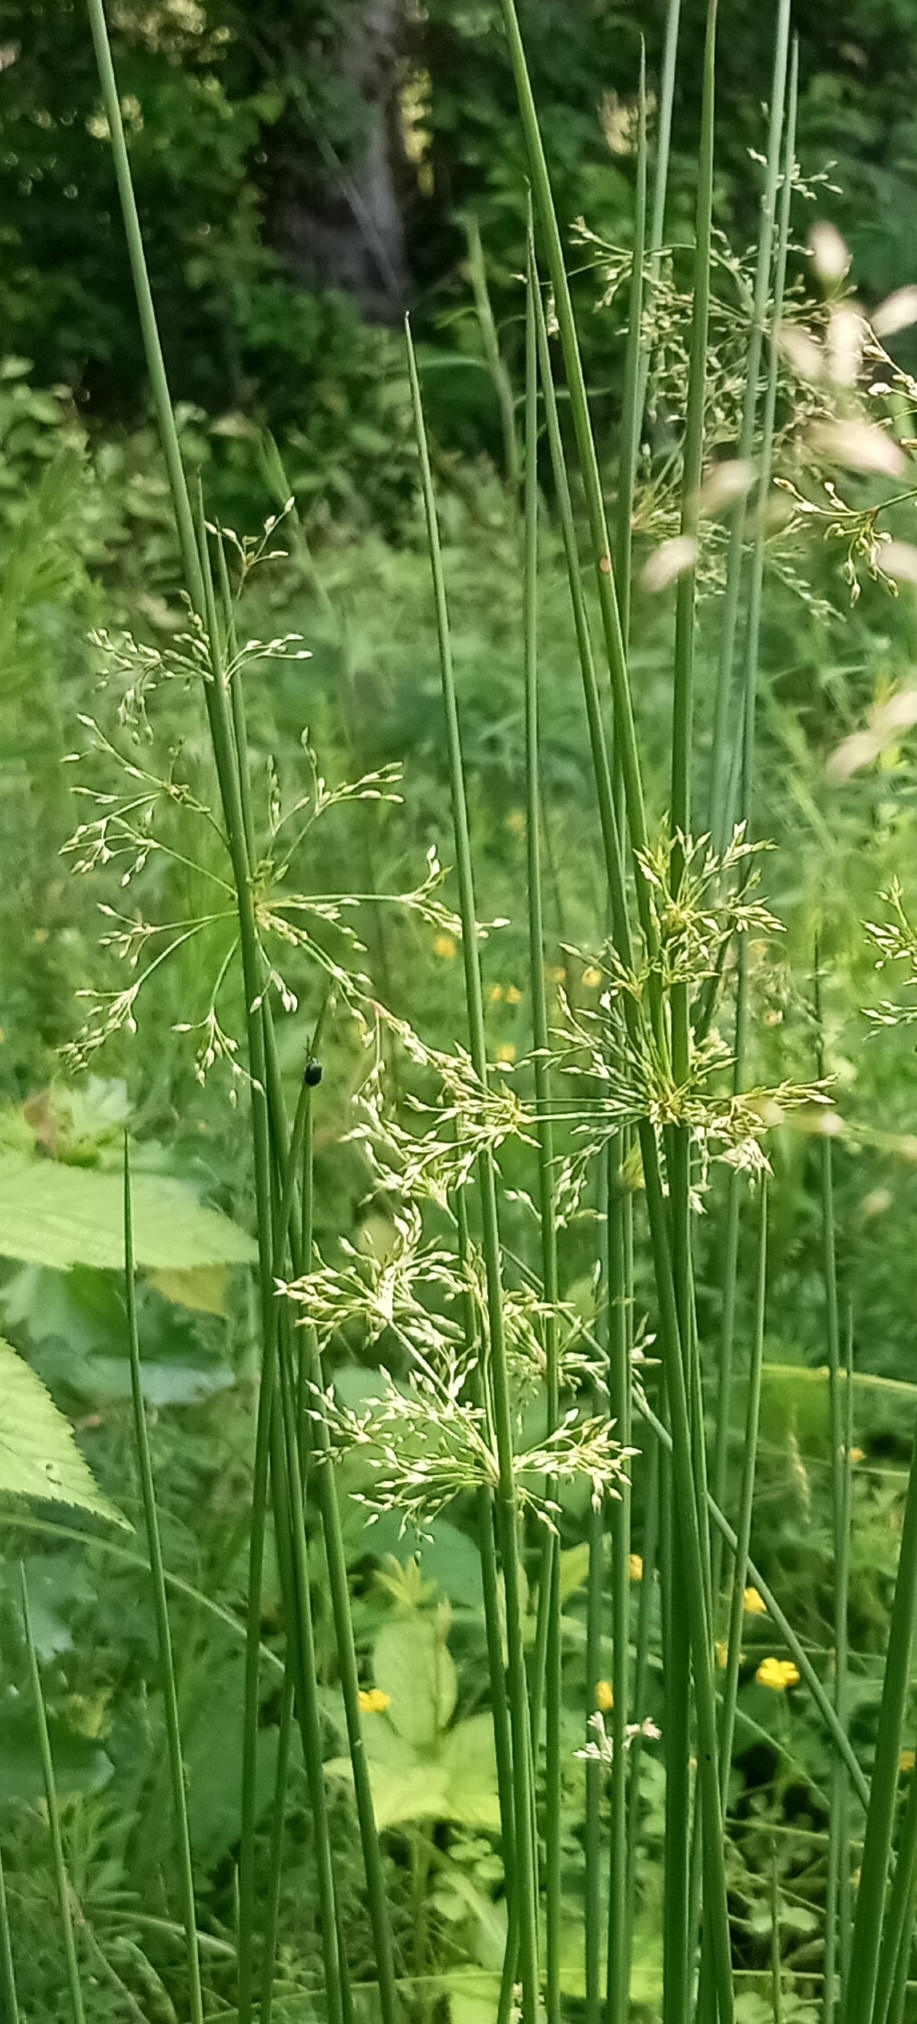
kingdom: Plantae
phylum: Tracheophyta
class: Liliopsida
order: Poales
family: Juncaceae
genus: Juncus
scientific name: Juncus effusus
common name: Soft rush
